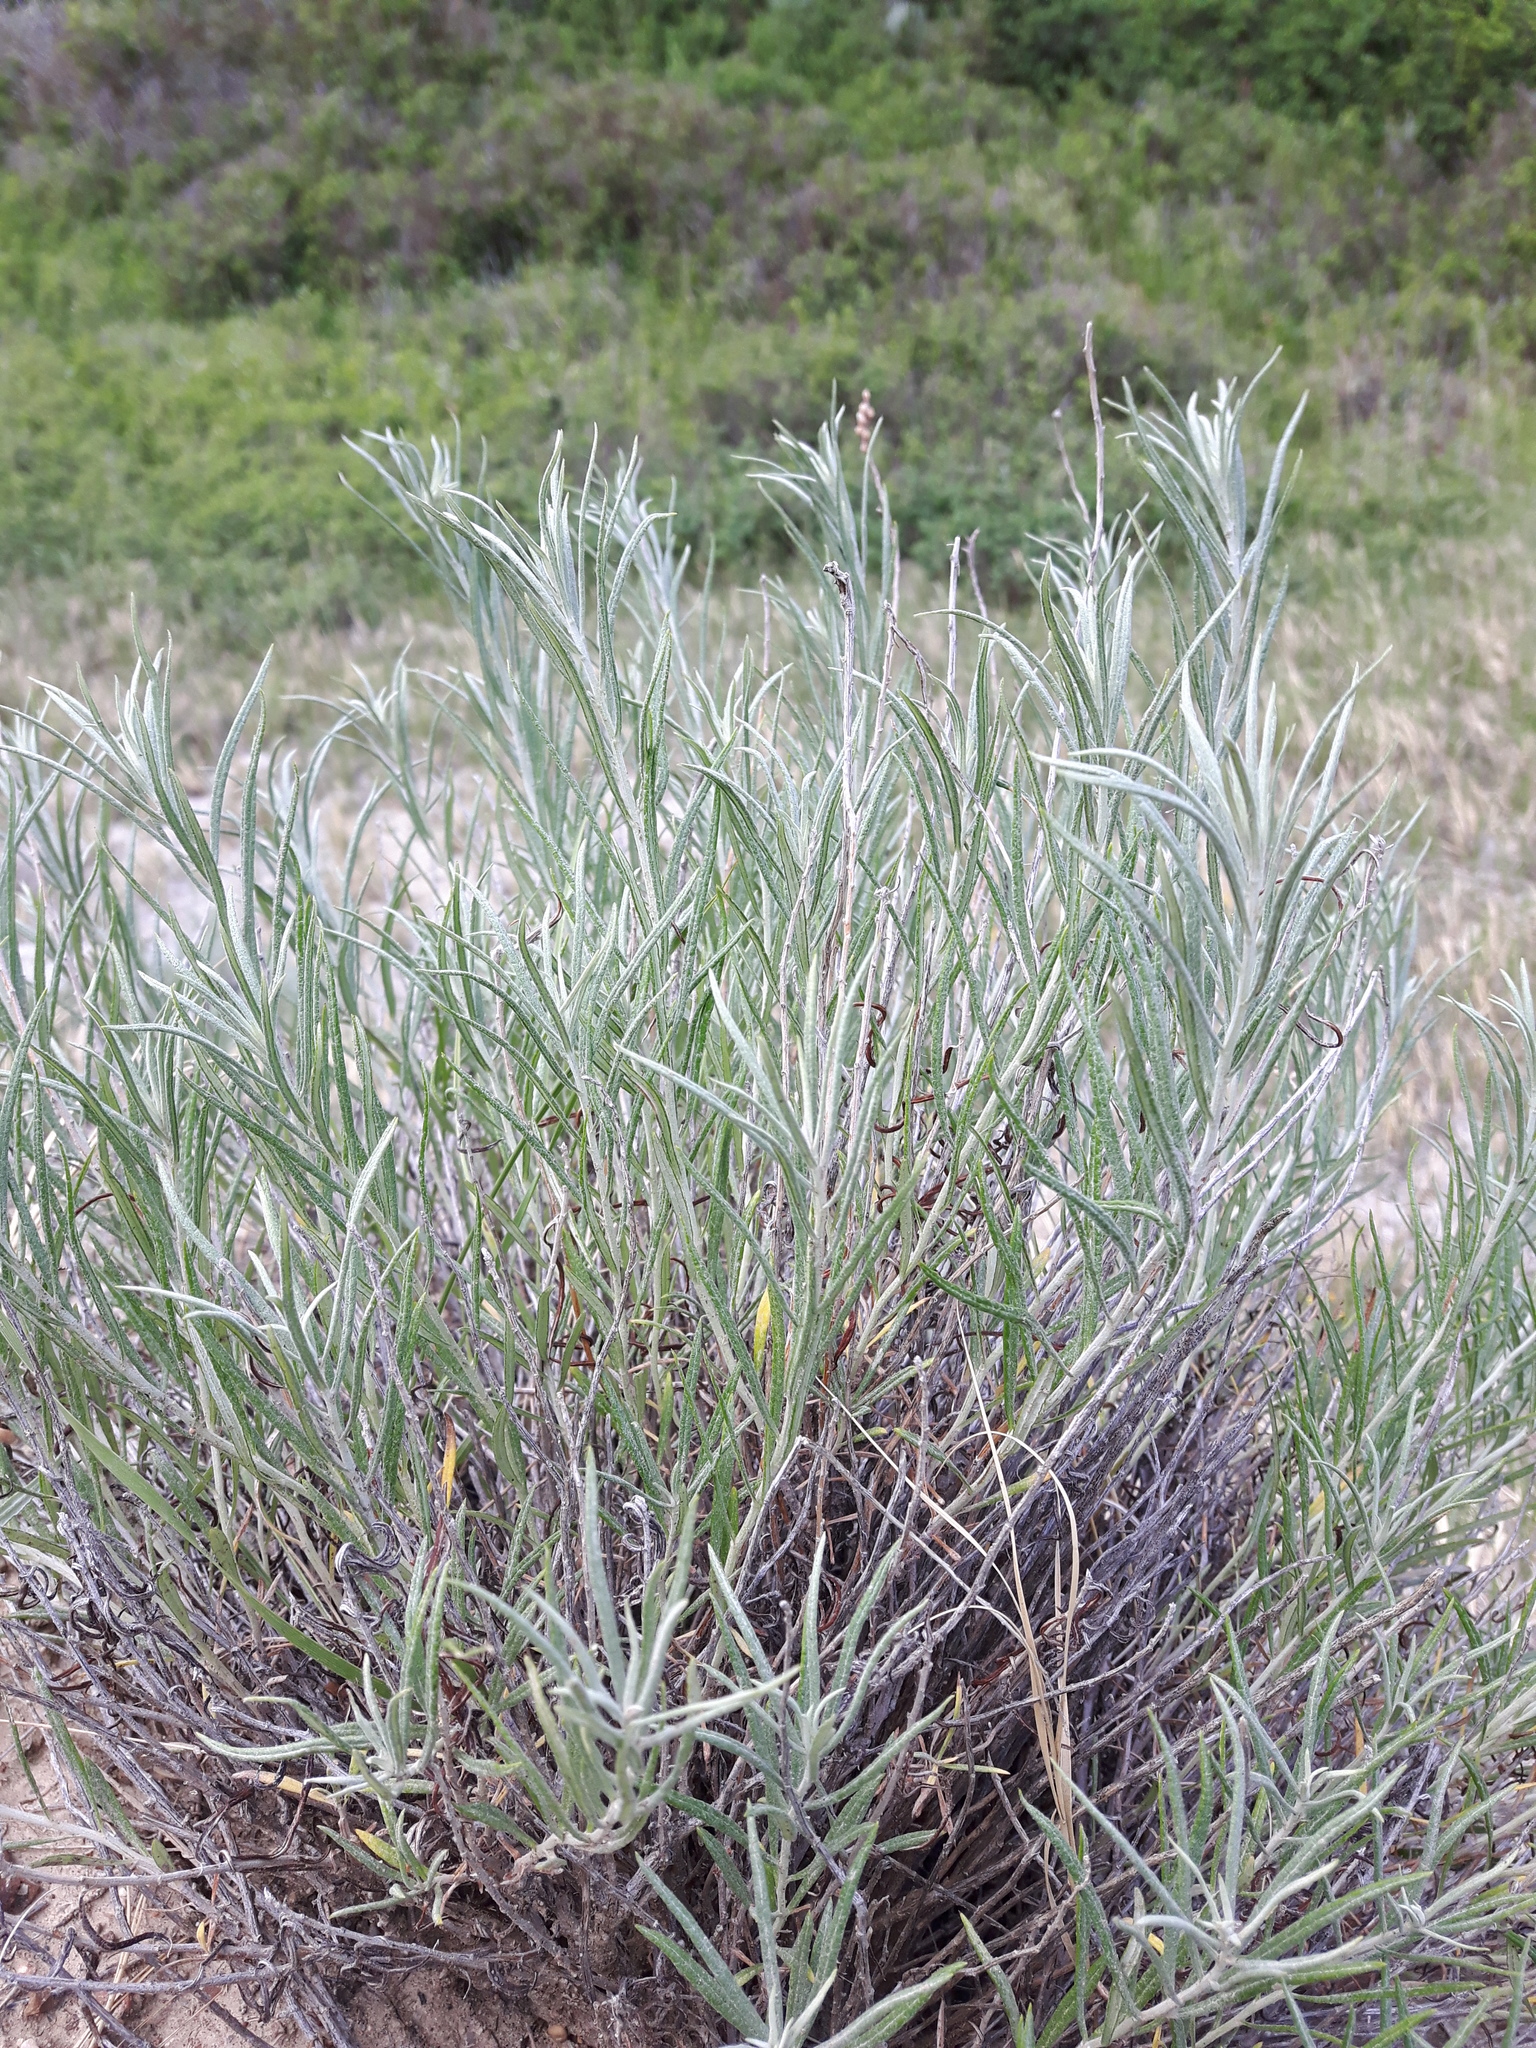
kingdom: Plantae
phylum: Tracheophyta
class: Magnoliopsida
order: Asterales
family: Asteraceae
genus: Artemisia
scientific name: Artemisia longifolia
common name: Long-leaved mugwort
